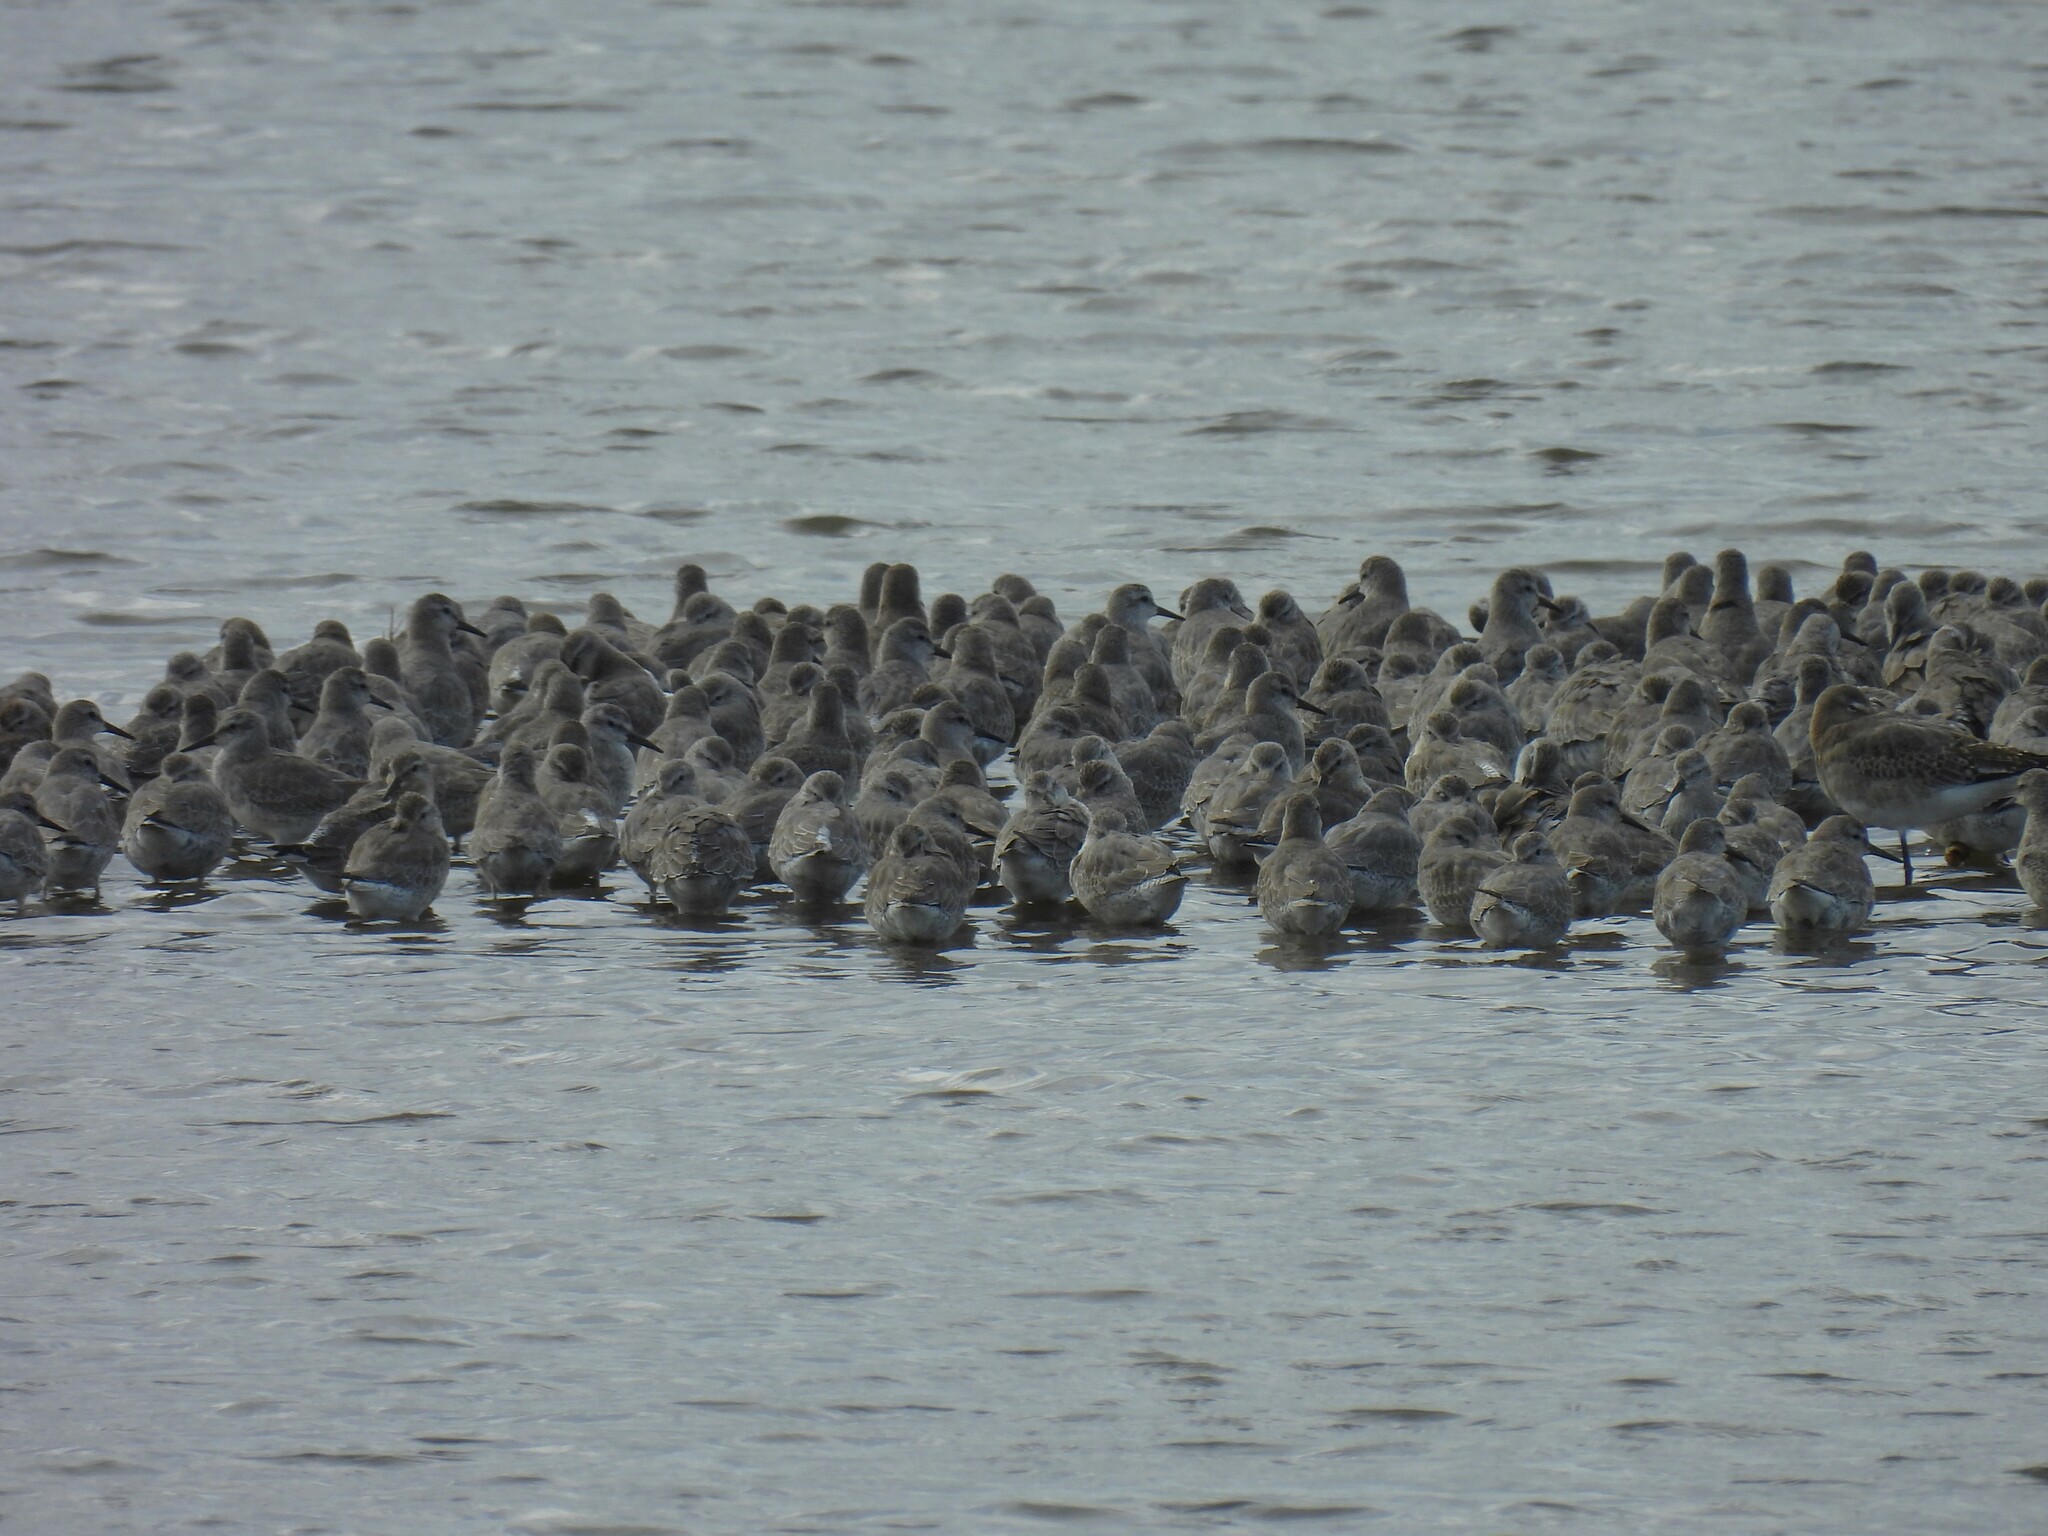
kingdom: Animalia
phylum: Chordata
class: Aves
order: Charadriiformes
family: Scolopacidae
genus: Calidris
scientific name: Calidris canutus
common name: Red knot
